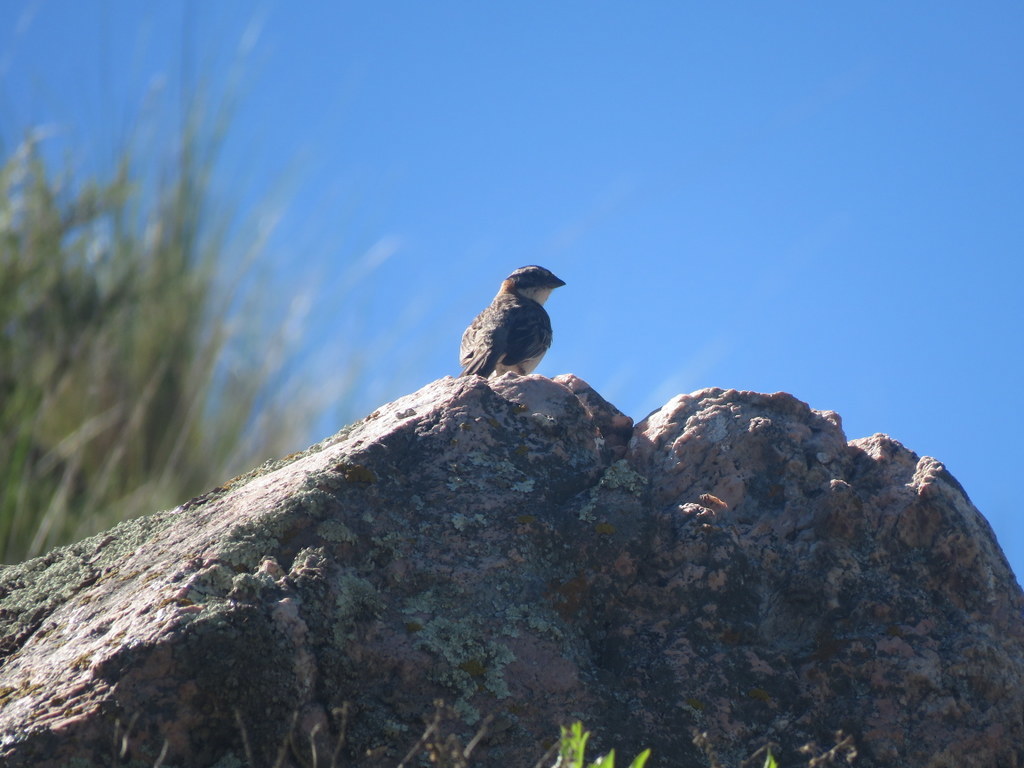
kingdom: Animalia
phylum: Chordata
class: Aves
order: Passeriformes
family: Passerellidae
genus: Zonotrichia
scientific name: Zonotrichia capensis
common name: Rufous-collared sparrow
